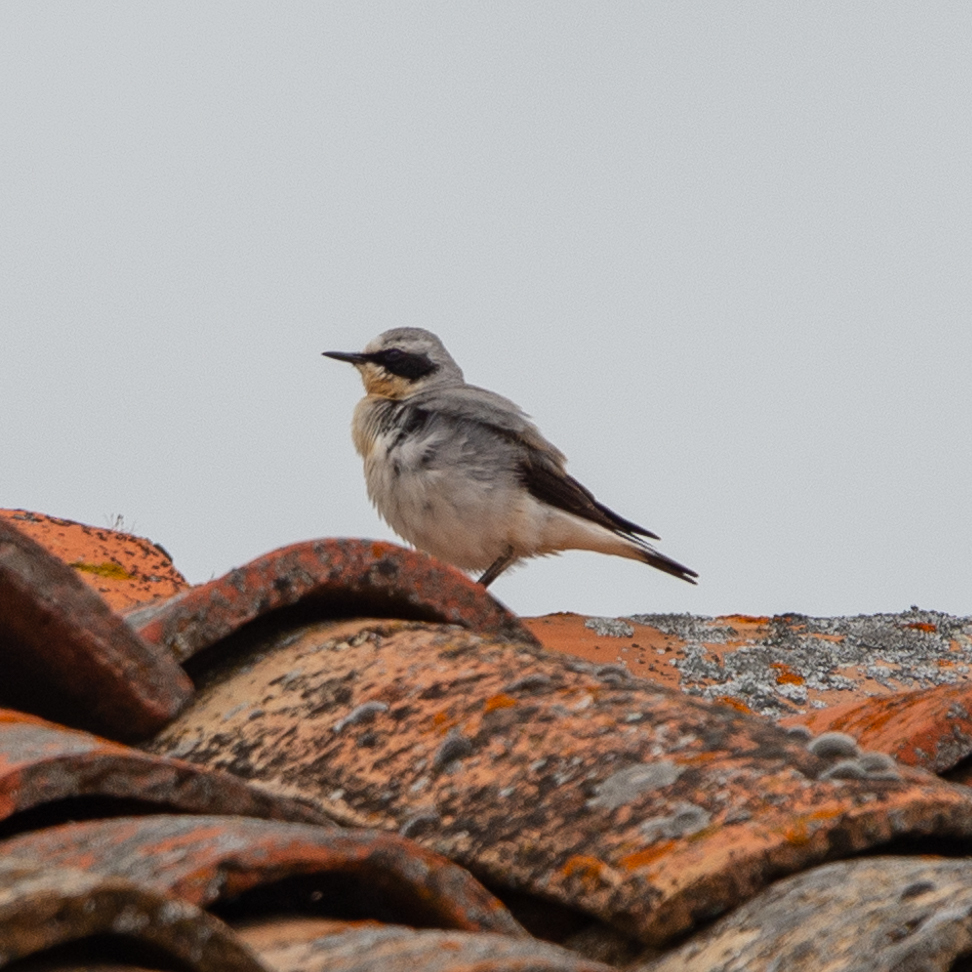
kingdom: Animalia
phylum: Chordata
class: Aves
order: Passeriformes
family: Muscicapidae
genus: Oenanthe
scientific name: Oenanthe oenanthe
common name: Northern wheatear
